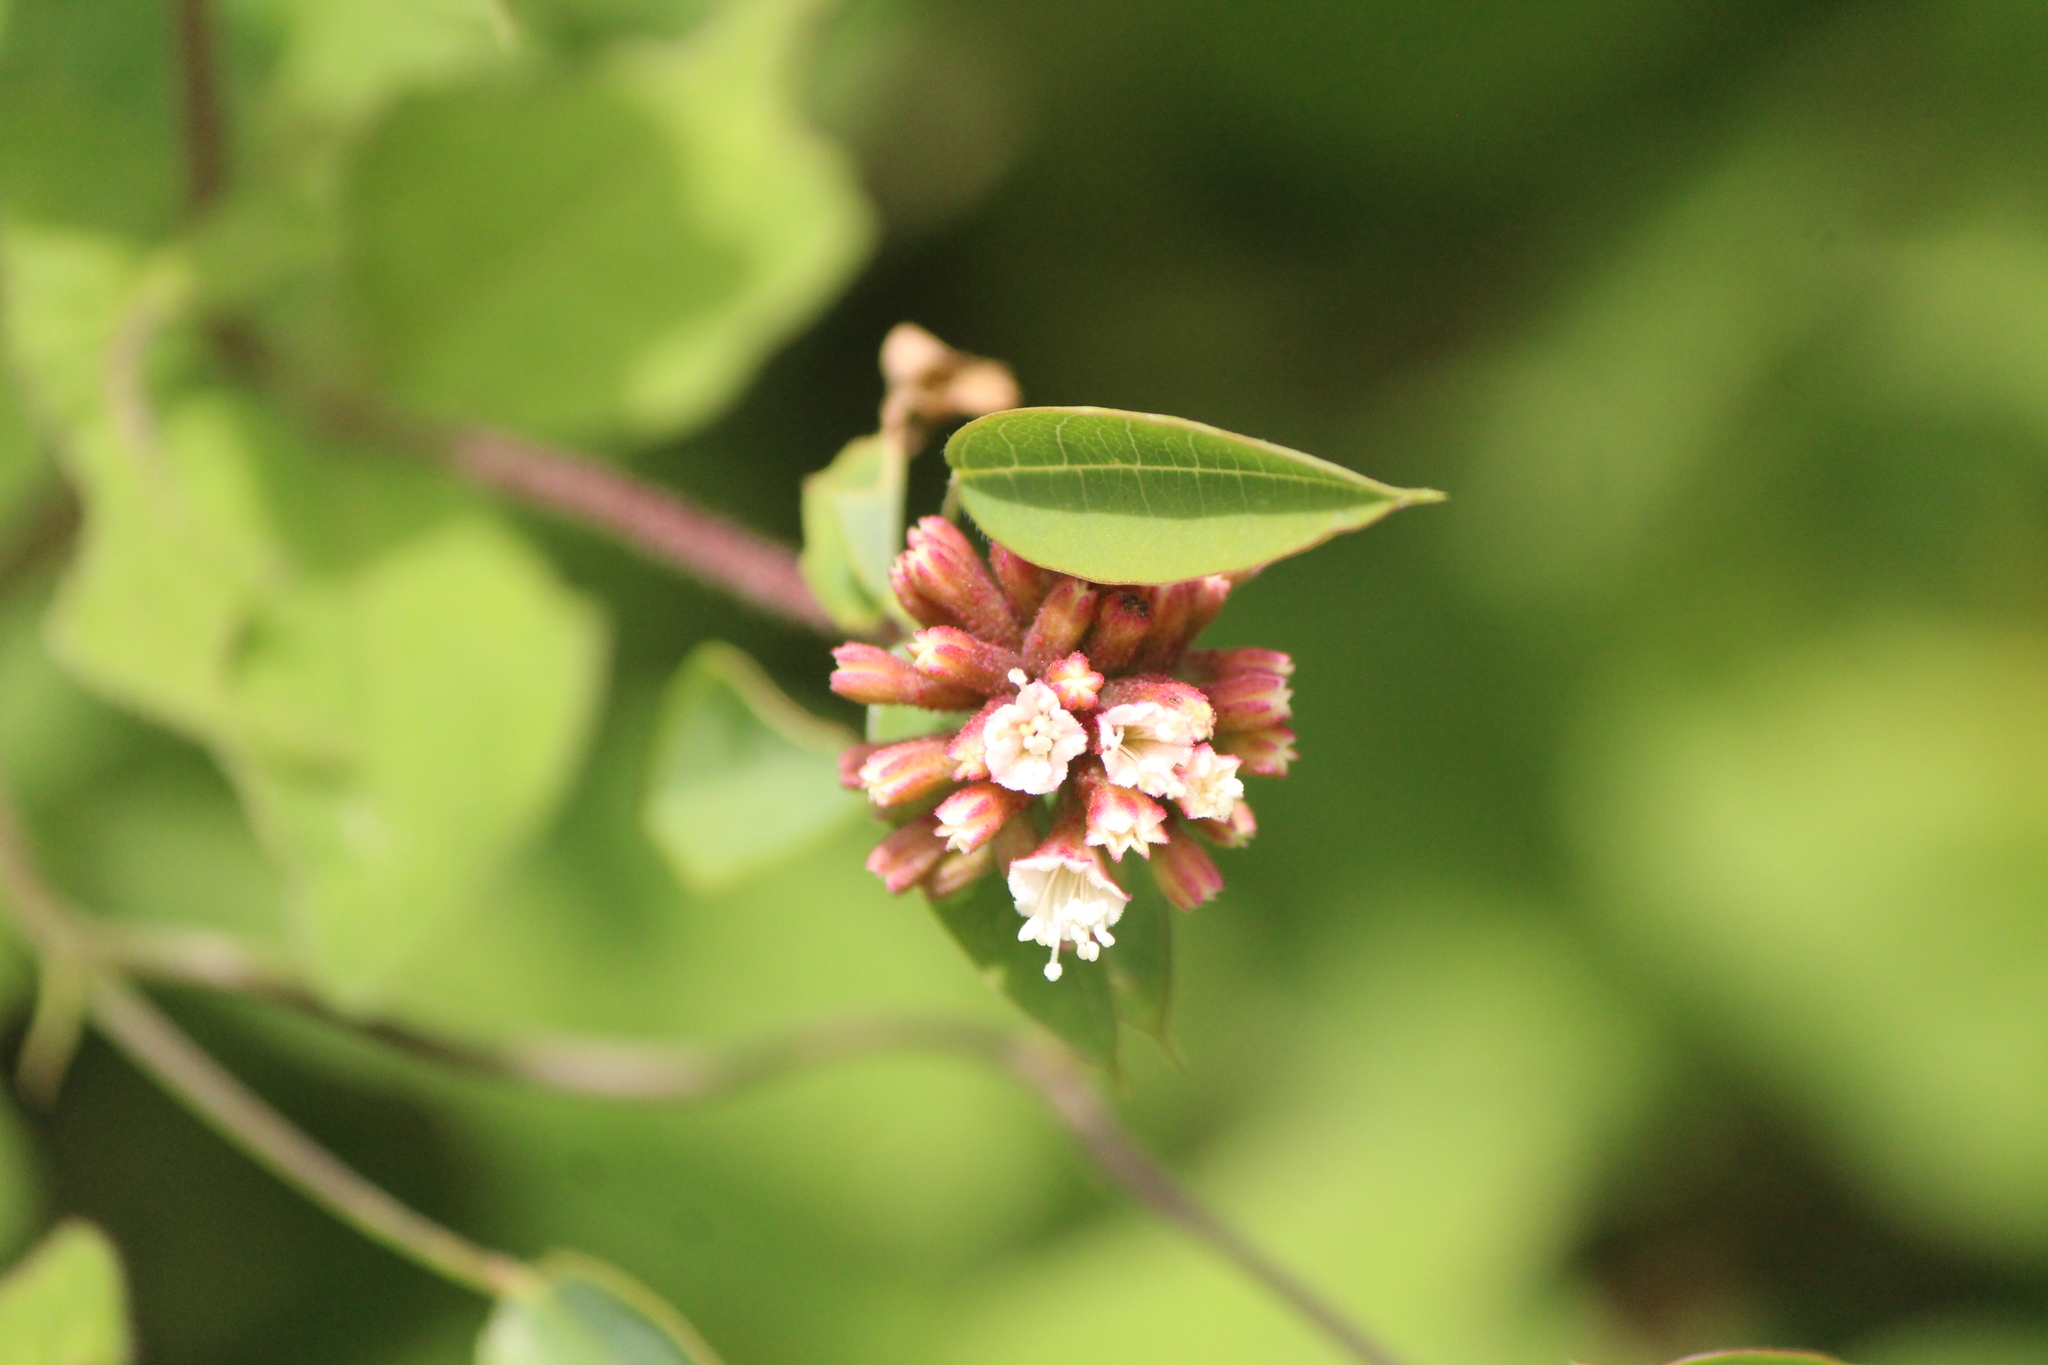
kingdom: Plantae
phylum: Tracheophyta
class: Magnoliopsida
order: Caryophyllales
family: Nyctaginaceae
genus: Pisoniella
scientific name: Pisoniella arborescens
